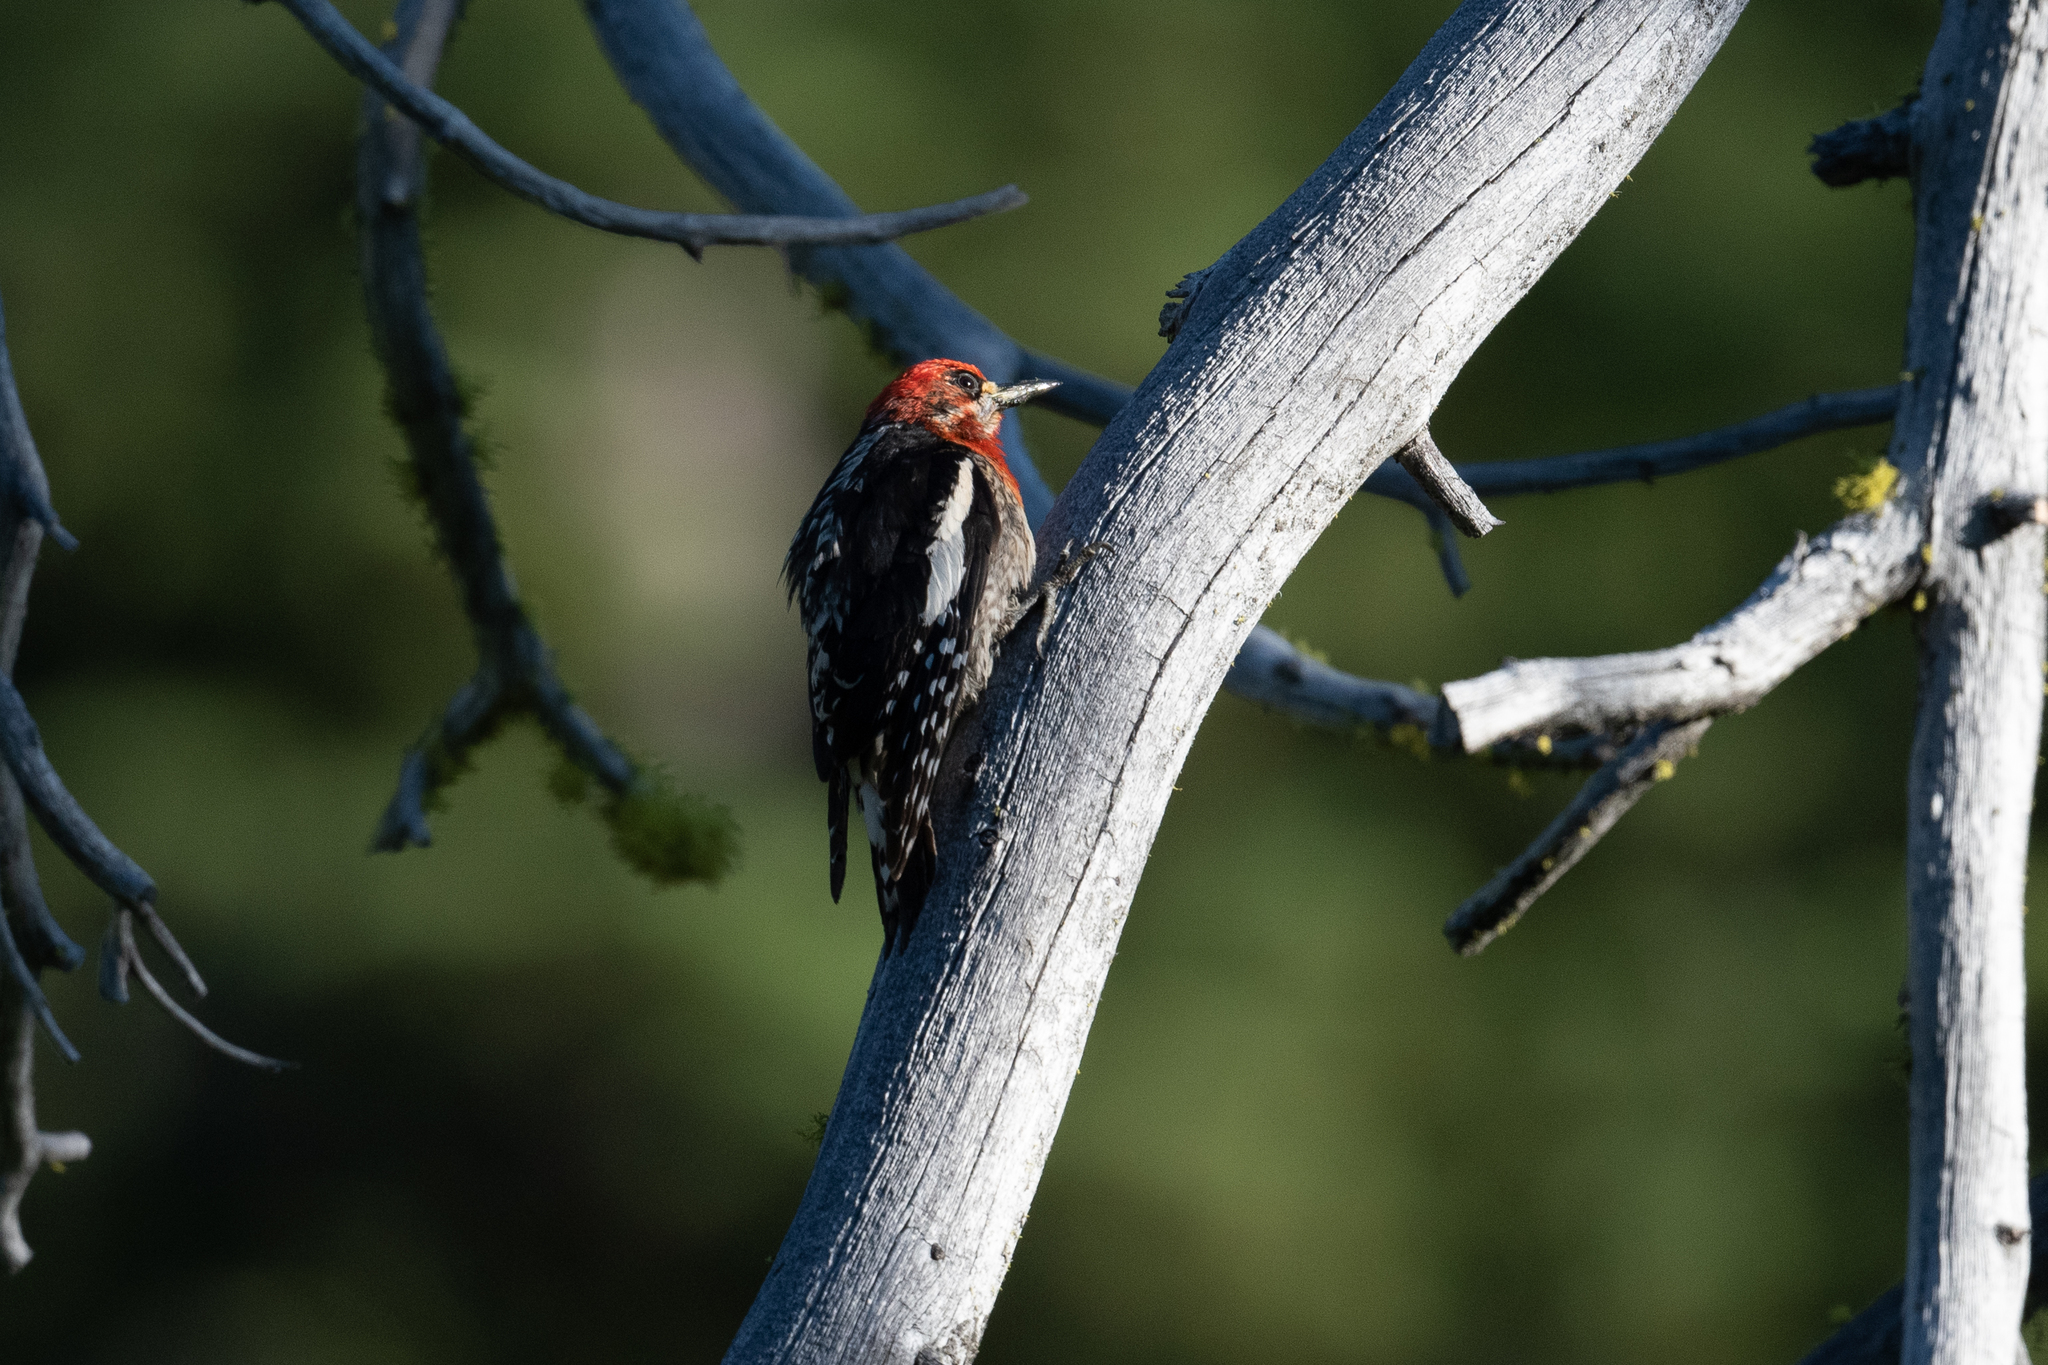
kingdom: Animalia
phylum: Chordata
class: Aves
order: Piciformes
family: Picidae
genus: Sphyrapicus
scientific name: Sphyrapicus ruber
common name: Red-breasted sapsucker
